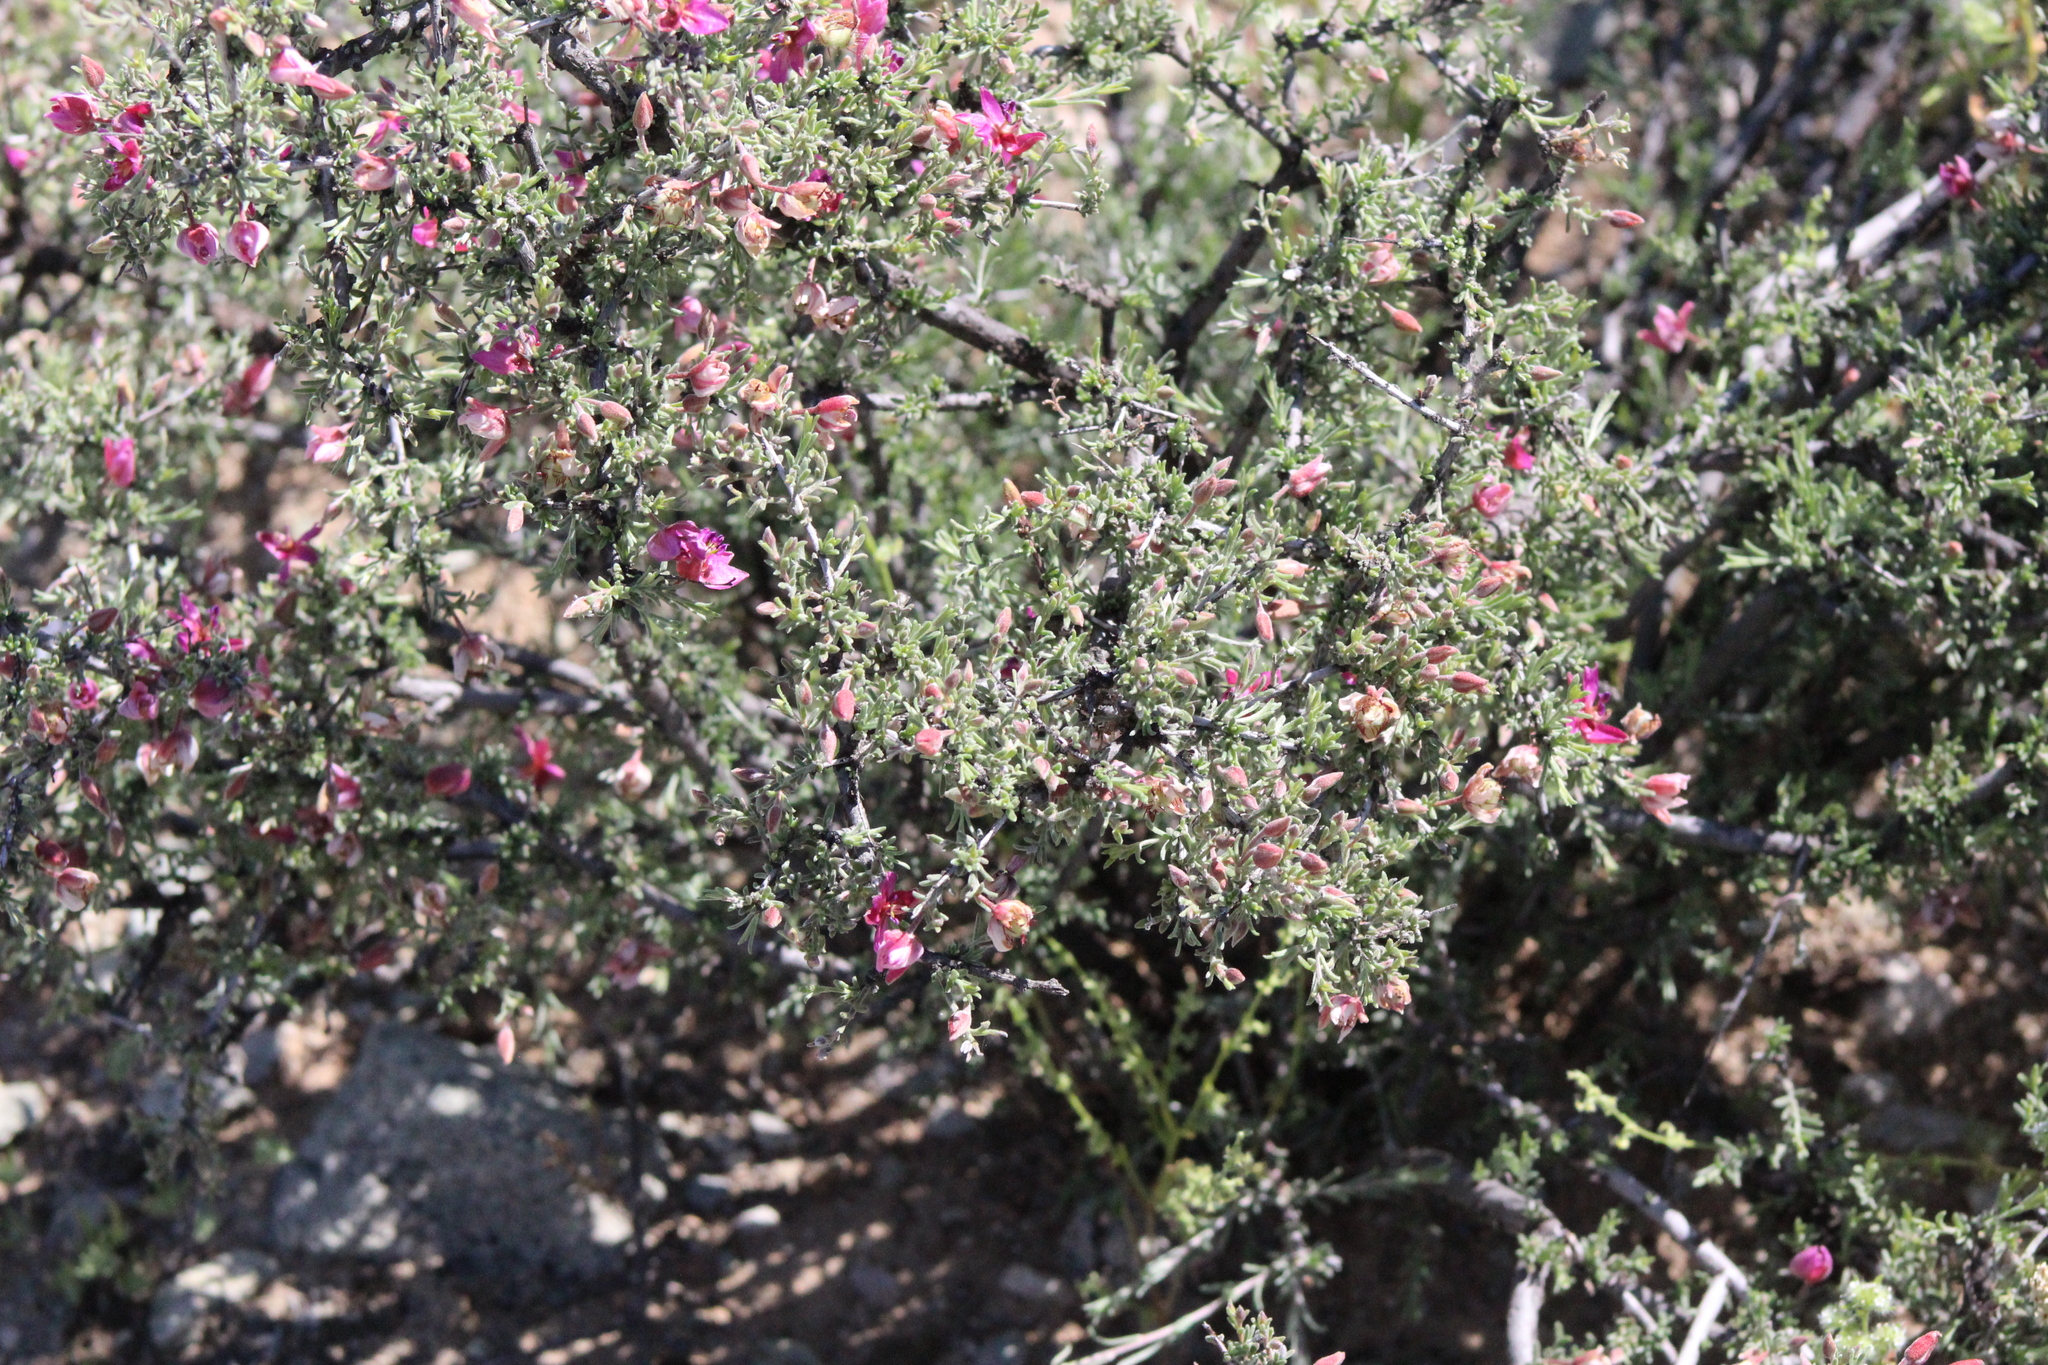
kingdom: Plantae
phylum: Tracheophyta
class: Magnoliopsida
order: Zygophyllales
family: Krameriaceae
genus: Krameria
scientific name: Krameria bicolor
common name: White ratany
